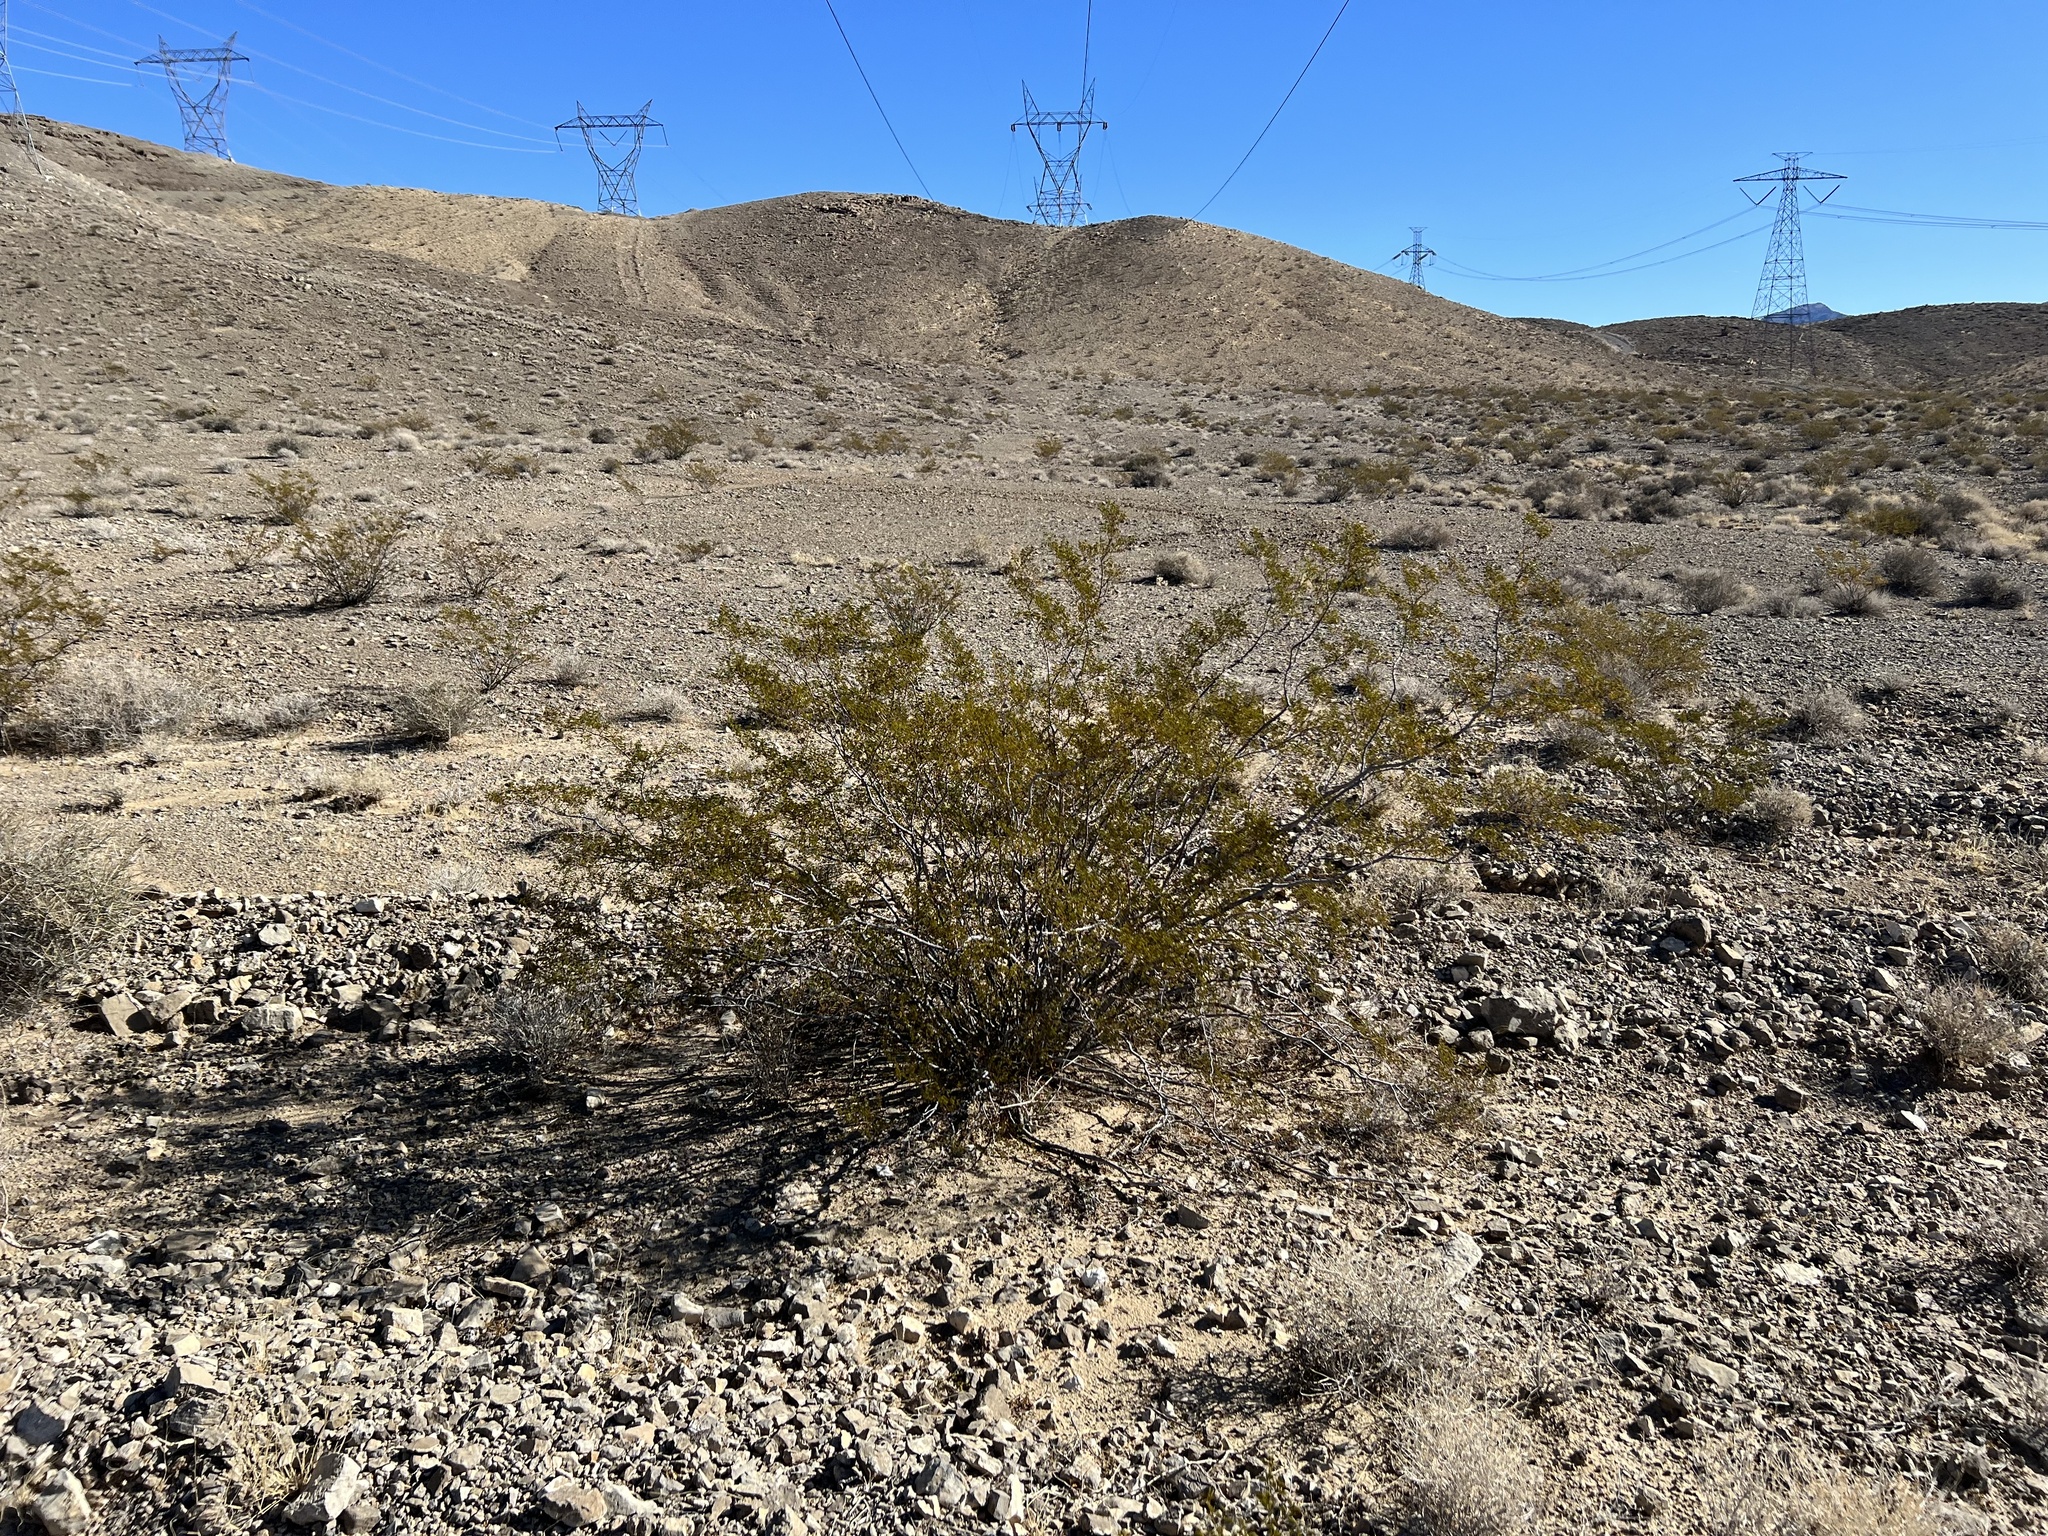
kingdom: Plantae
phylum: Tracheophyta
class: Magnoliopsida
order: Zygophyllales
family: Zygophyllaceae
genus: Larrea
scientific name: Larrea tridentata
